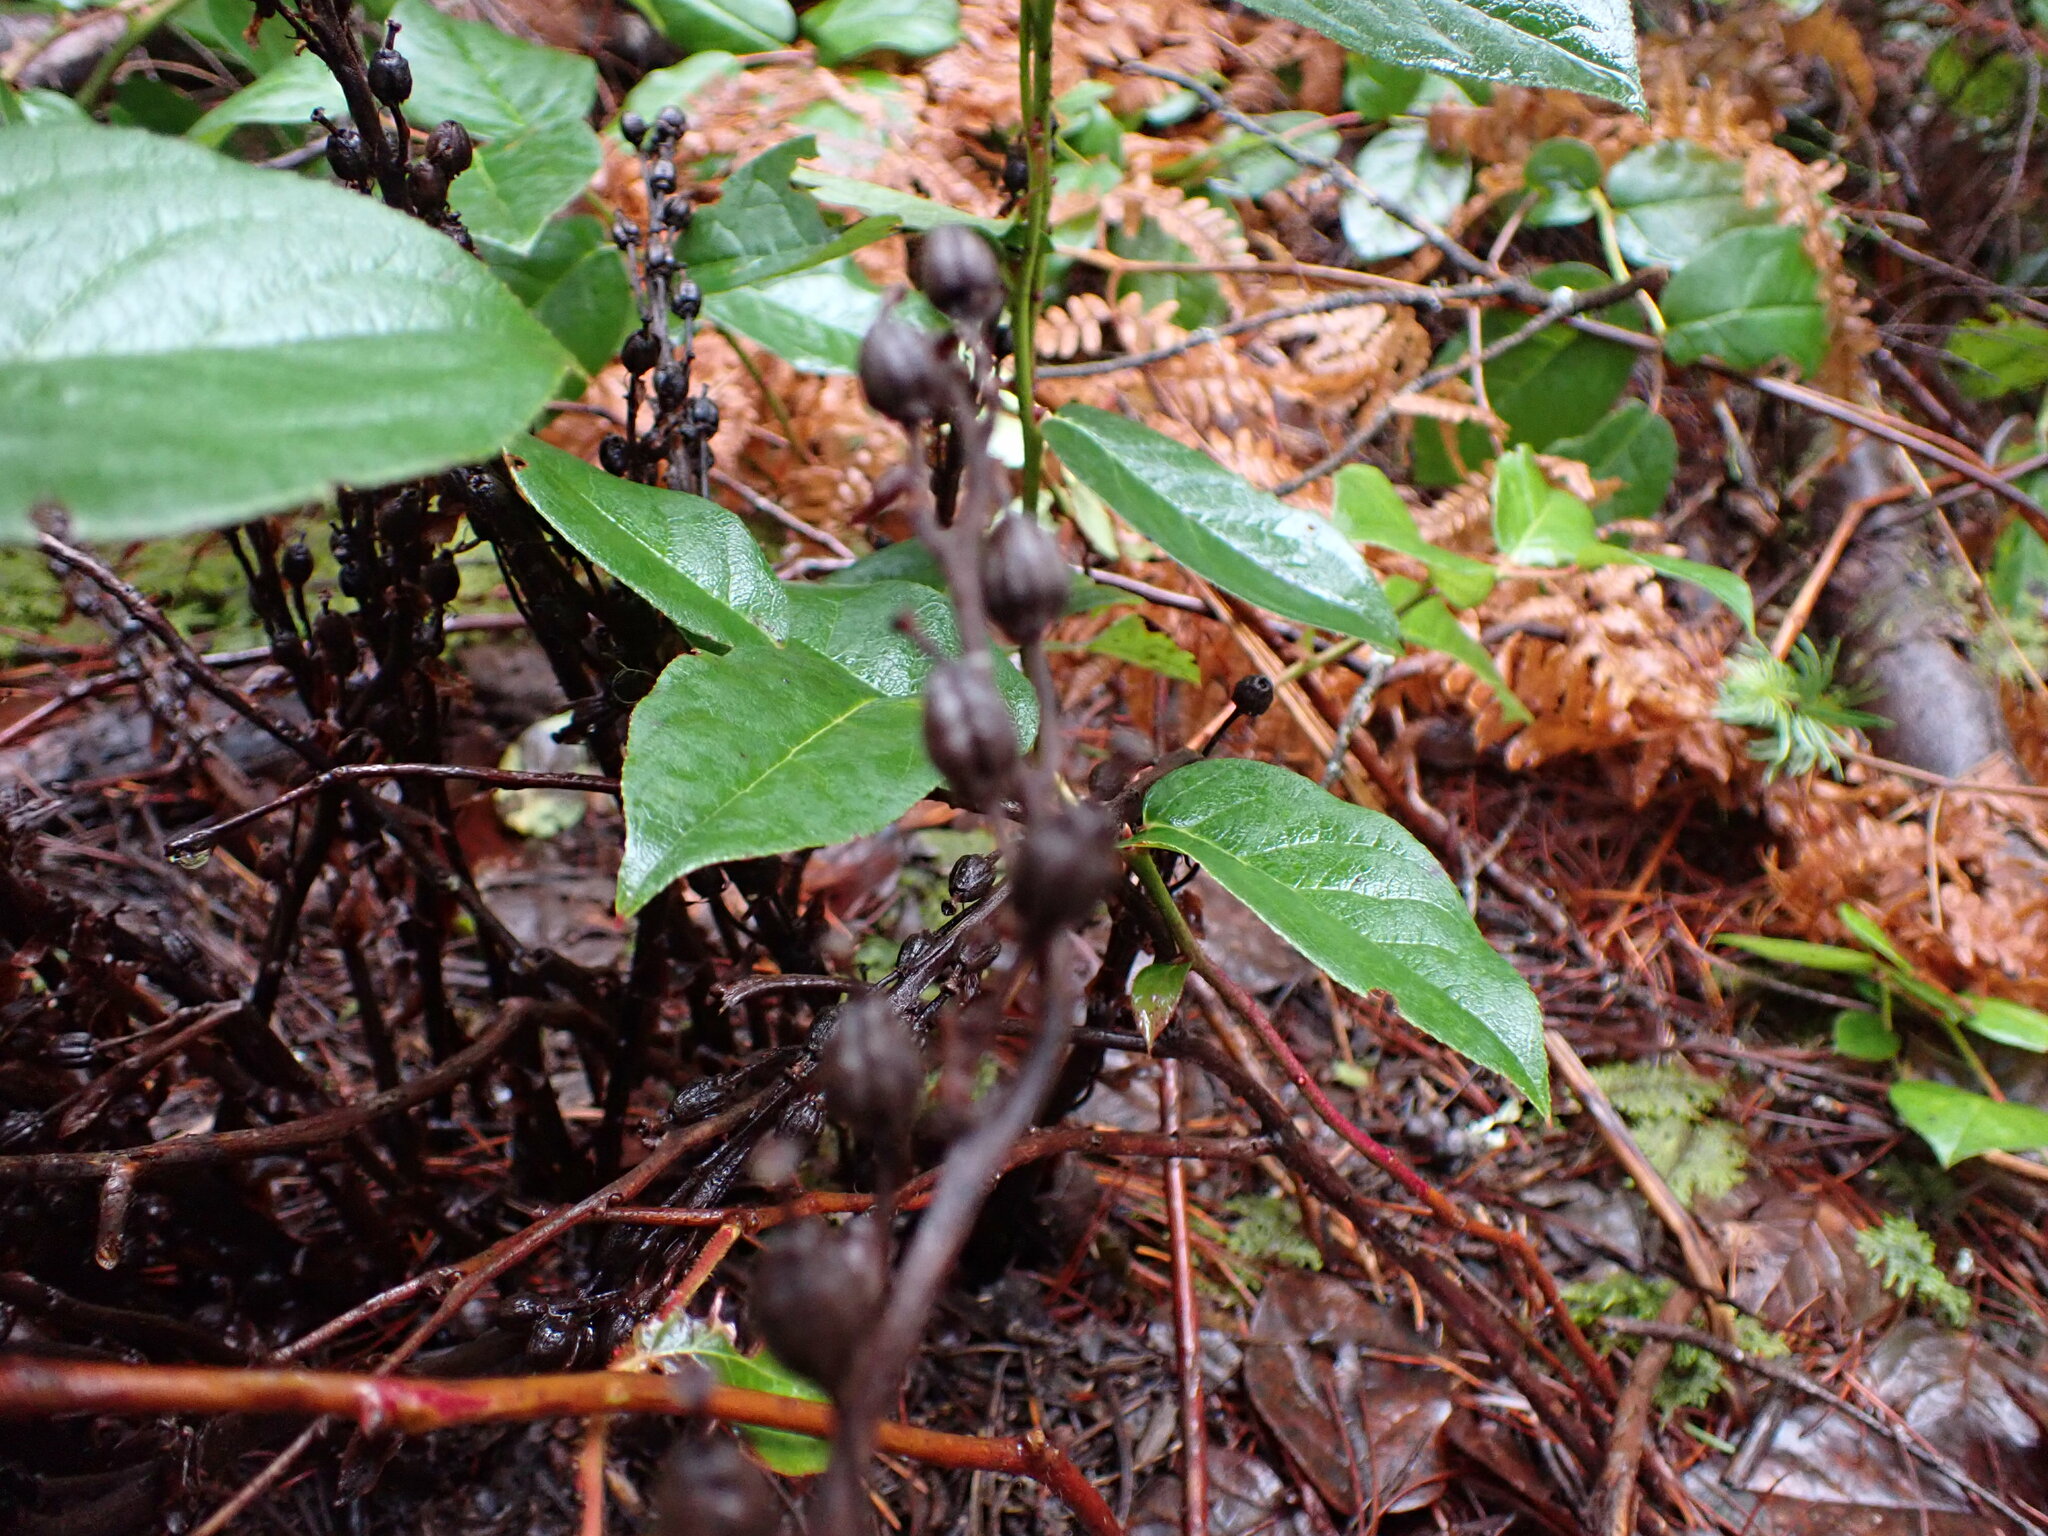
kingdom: Plantae
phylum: Tracheophyta
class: Magnoliopsida
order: Ericales
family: Ericaceae
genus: Hypopitys
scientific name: Hypopitys monotropa
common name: Yellow bird's-nest
